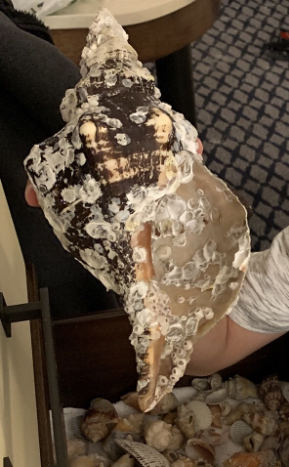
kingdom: Animalia
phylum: Mollusca
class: Gastropoda
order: Neogastropoda
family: Fasciolariidae
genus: Triplofusus
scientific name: Triplofusus giganteus
